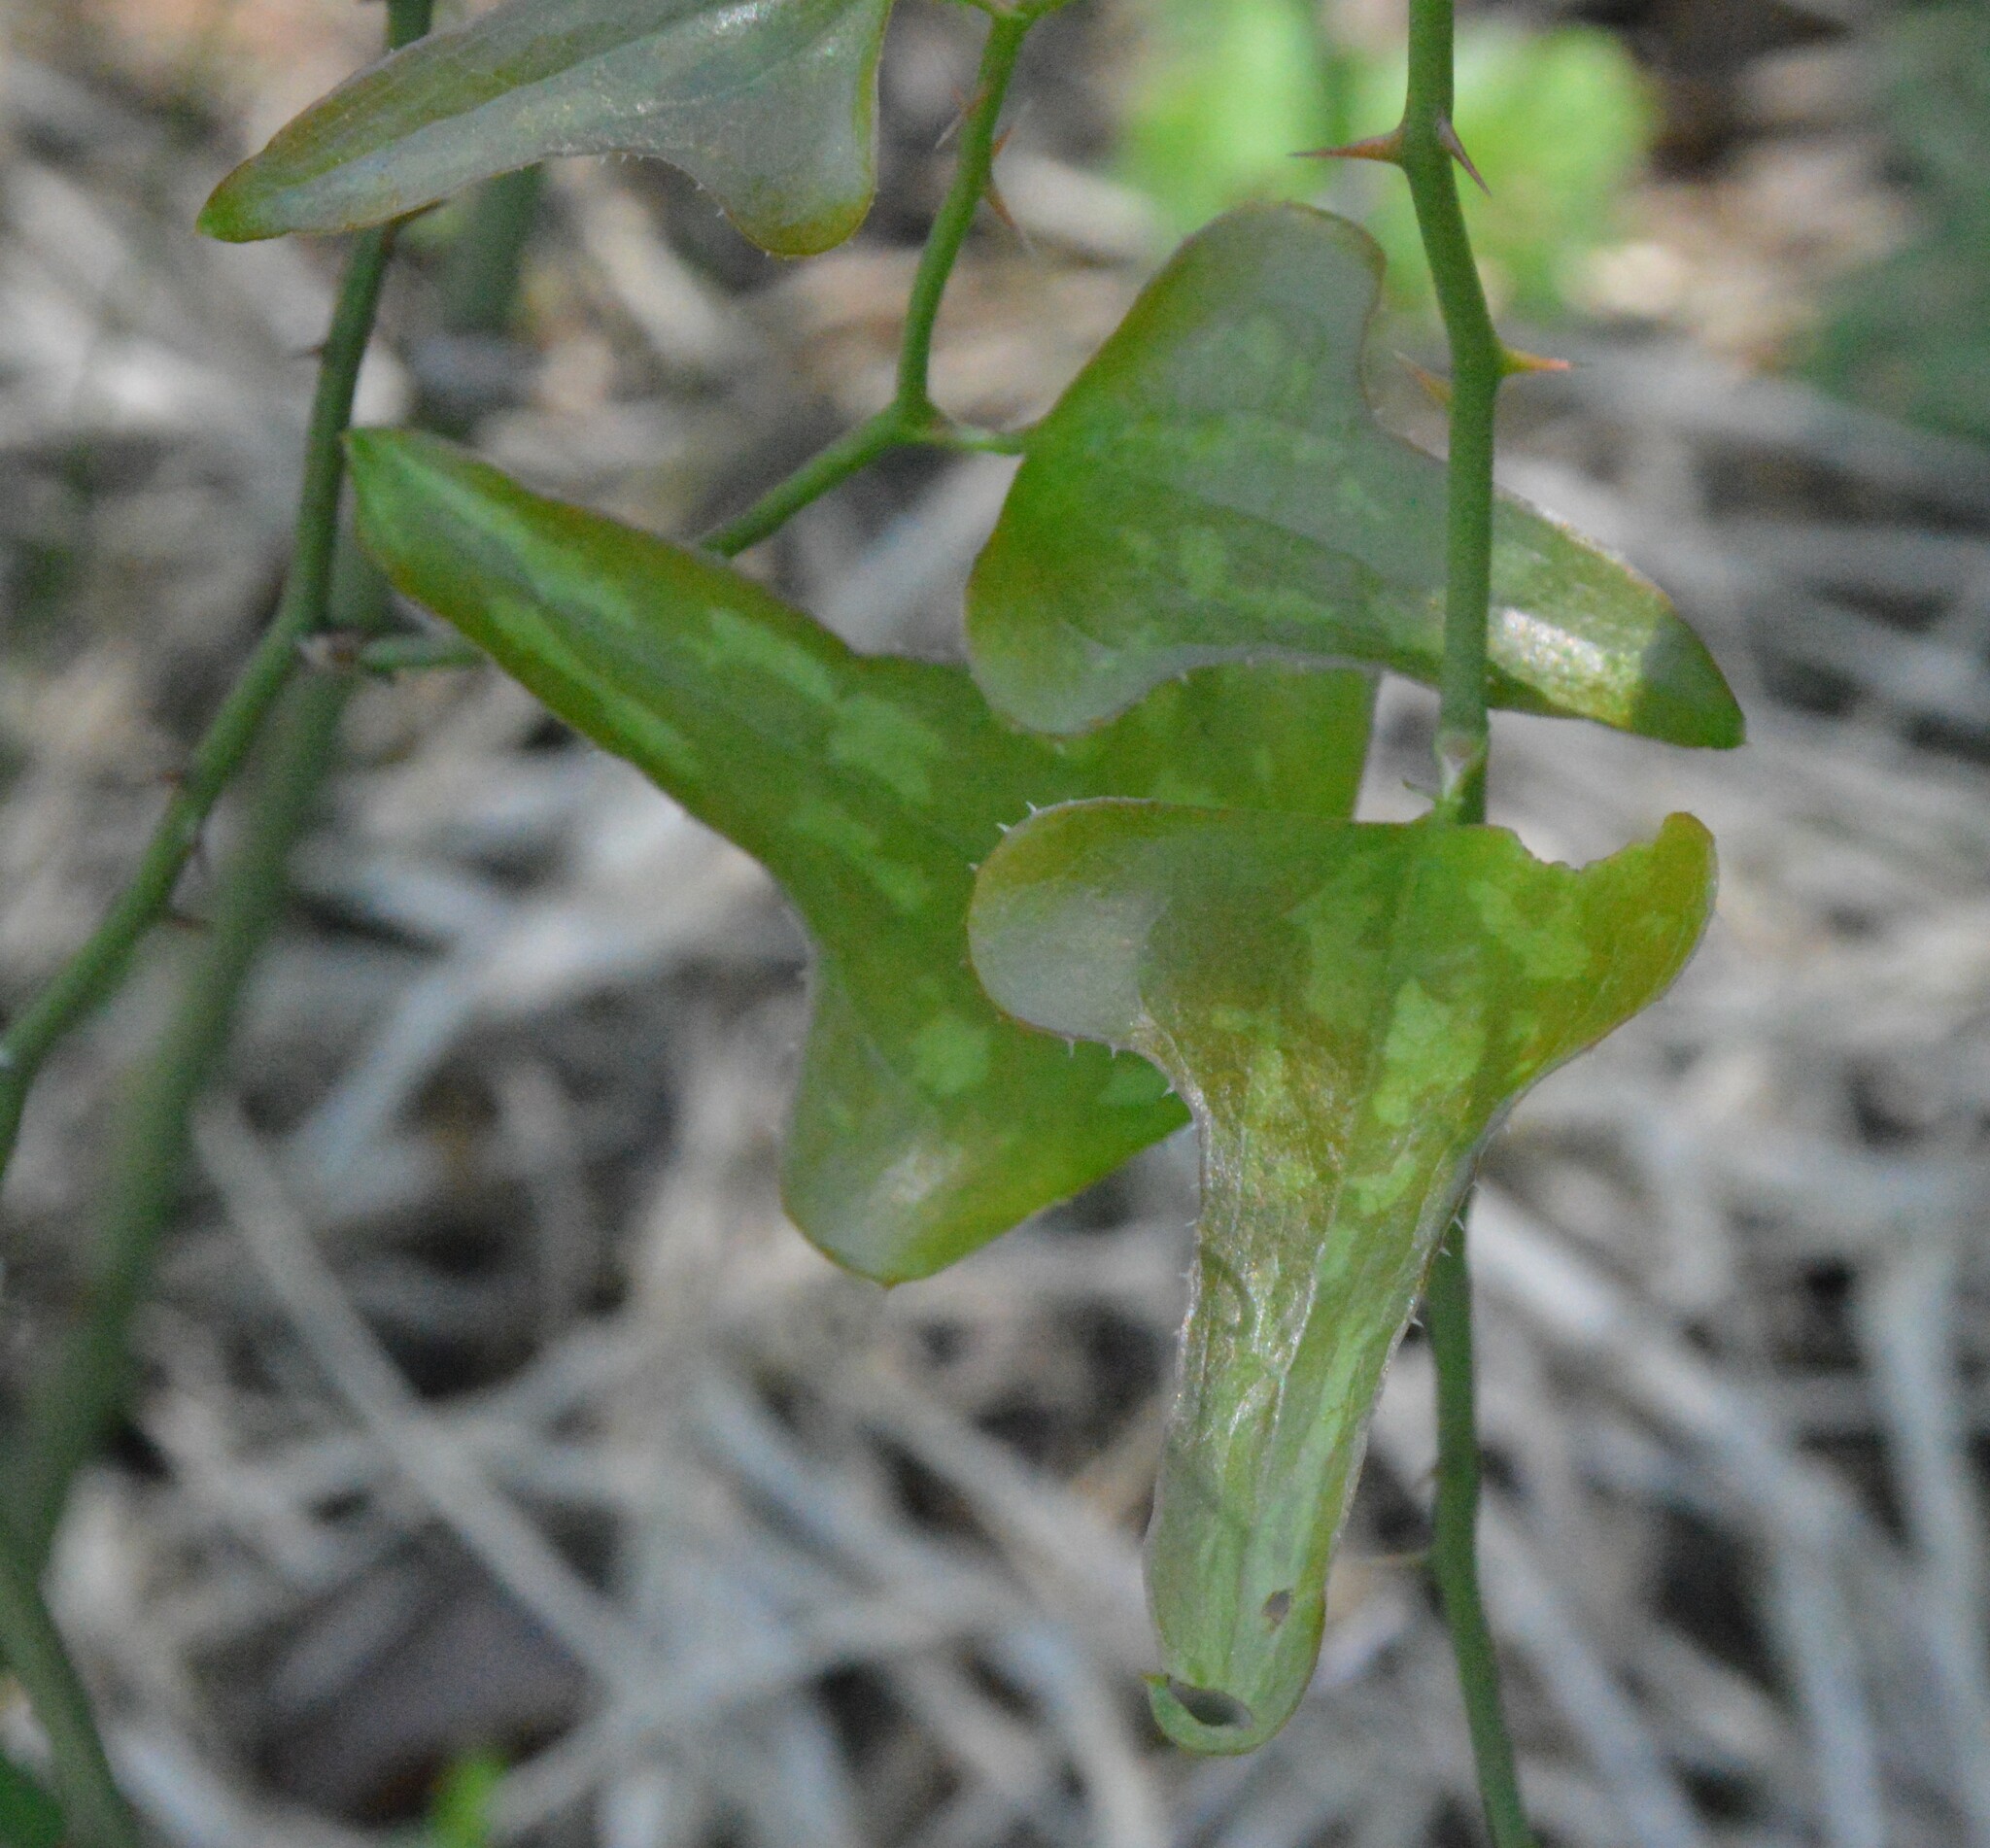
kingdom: Plantae
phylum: Tracheophyta
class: Liliopsida
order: Liliales
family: Smilacaceae
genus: Smilax
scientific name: Smilax bona-nox
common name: Catbrier
